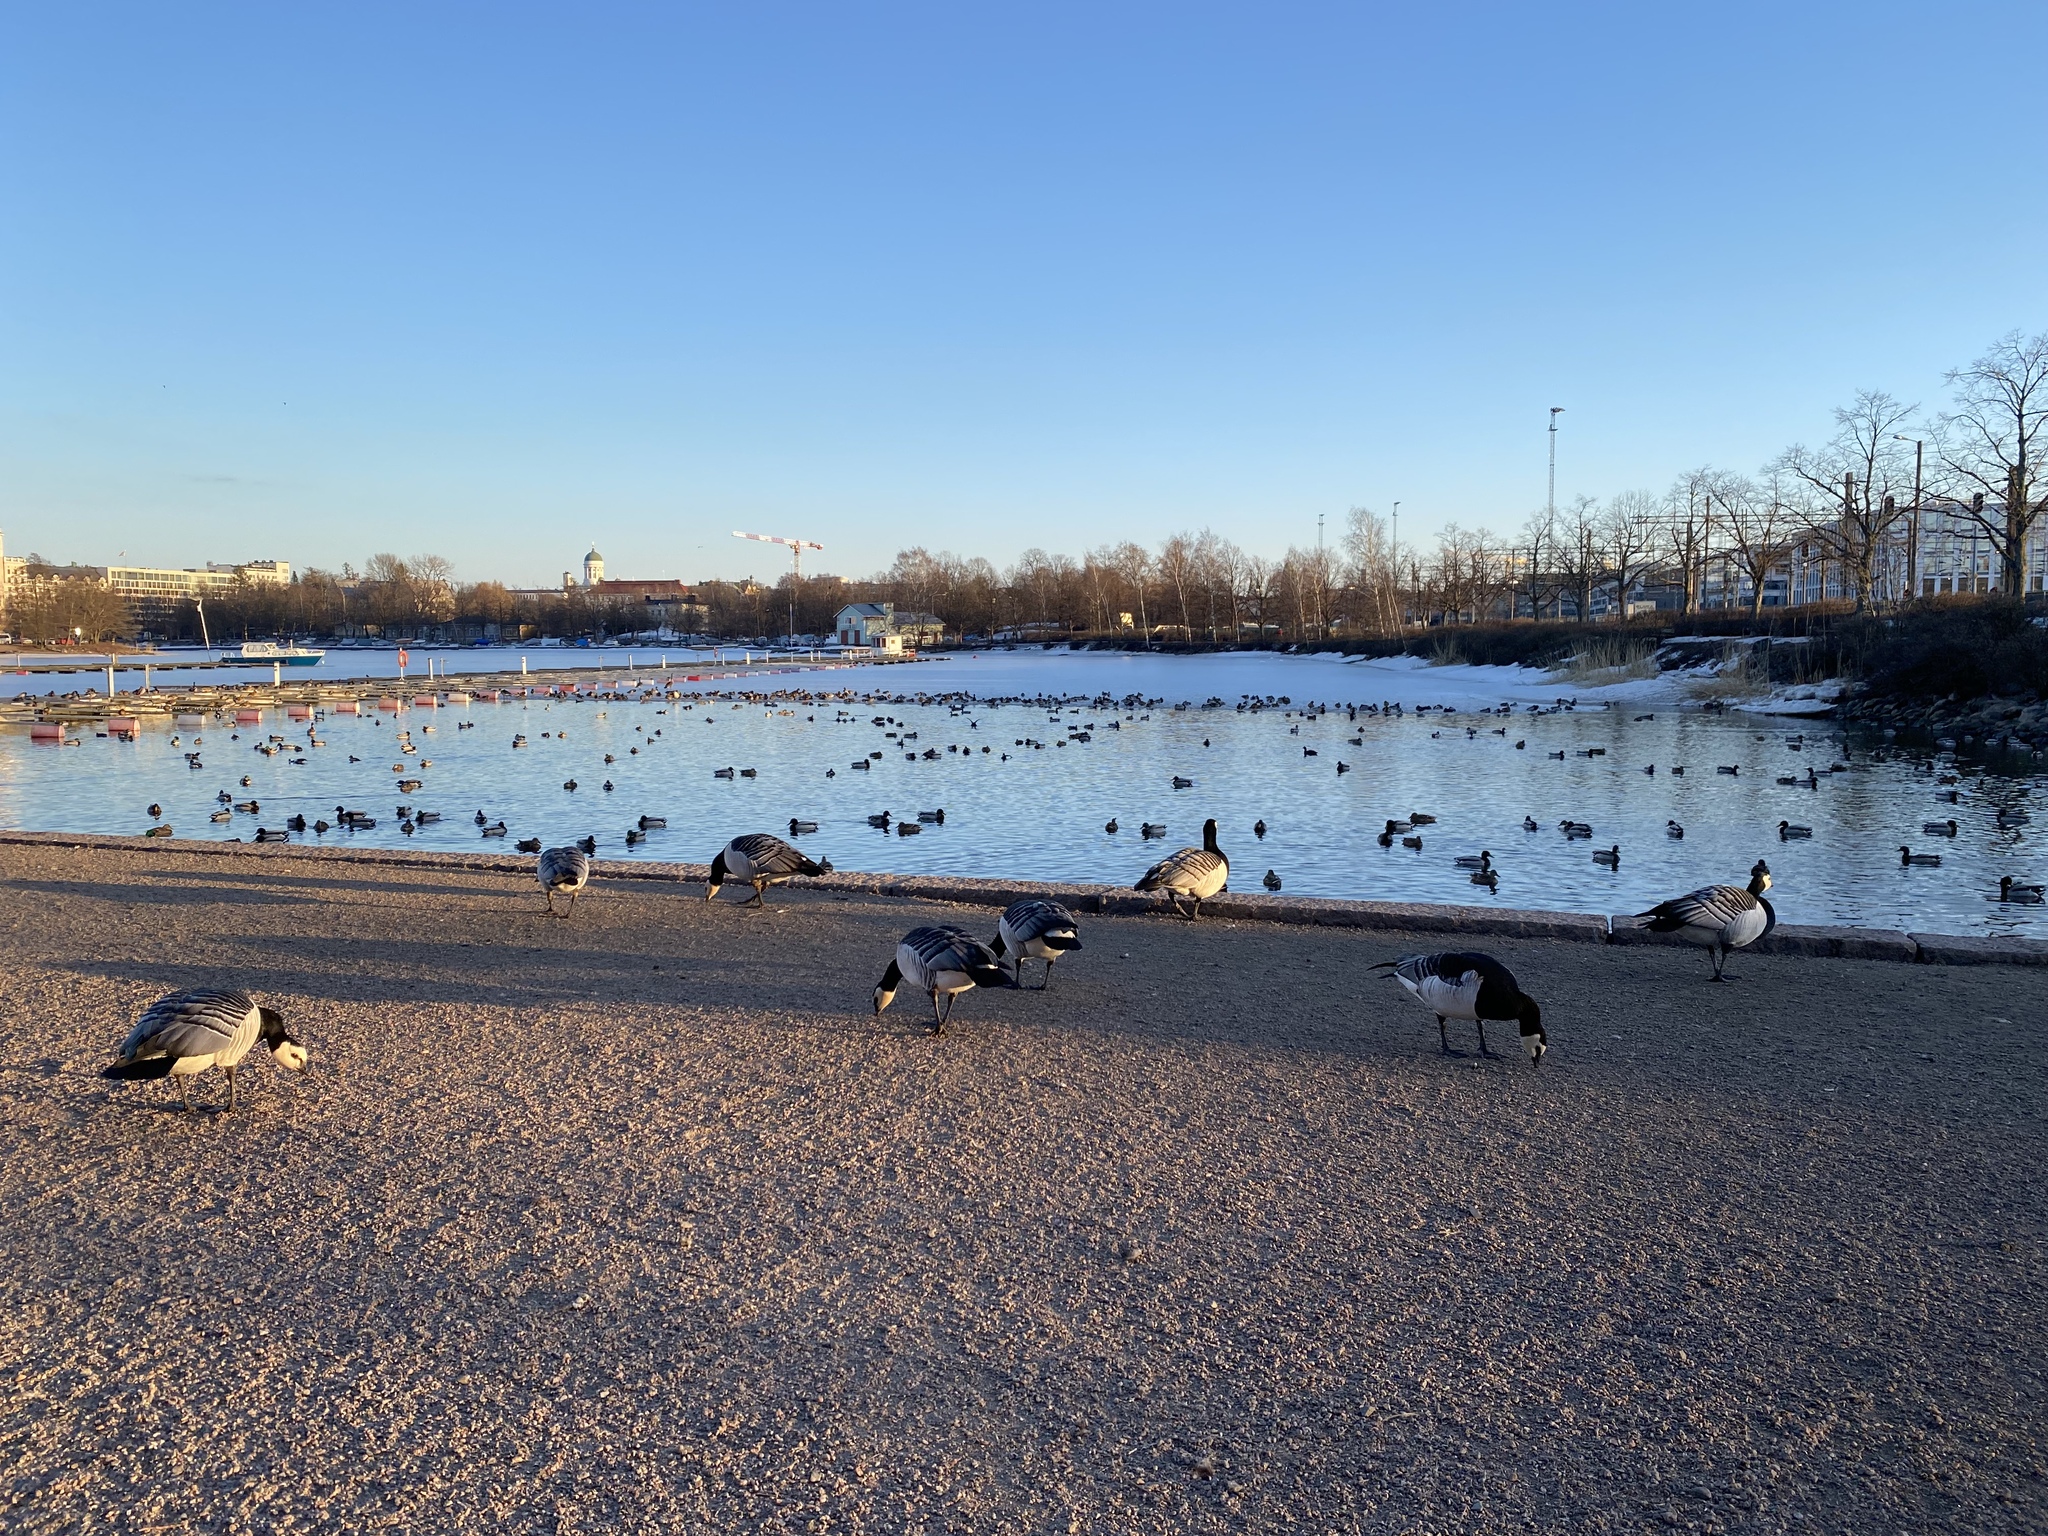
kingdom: Animalia
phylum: Chordata
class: Aves
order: Anseriformes
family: Anatidae
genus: Branta
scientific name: Branta leucopsis
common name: Barnacle goose
